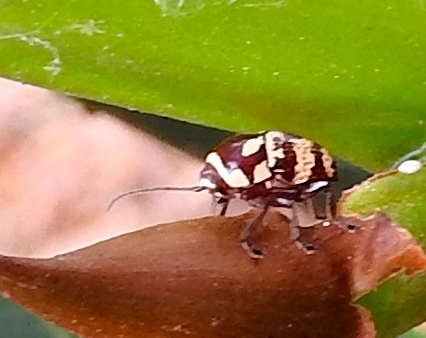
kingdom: Animalia
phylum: Arthropoda
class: Insecta
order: Coleoptera
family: Chrysomelidae
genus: Cryptocephalus
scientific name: Cryptocephalus
